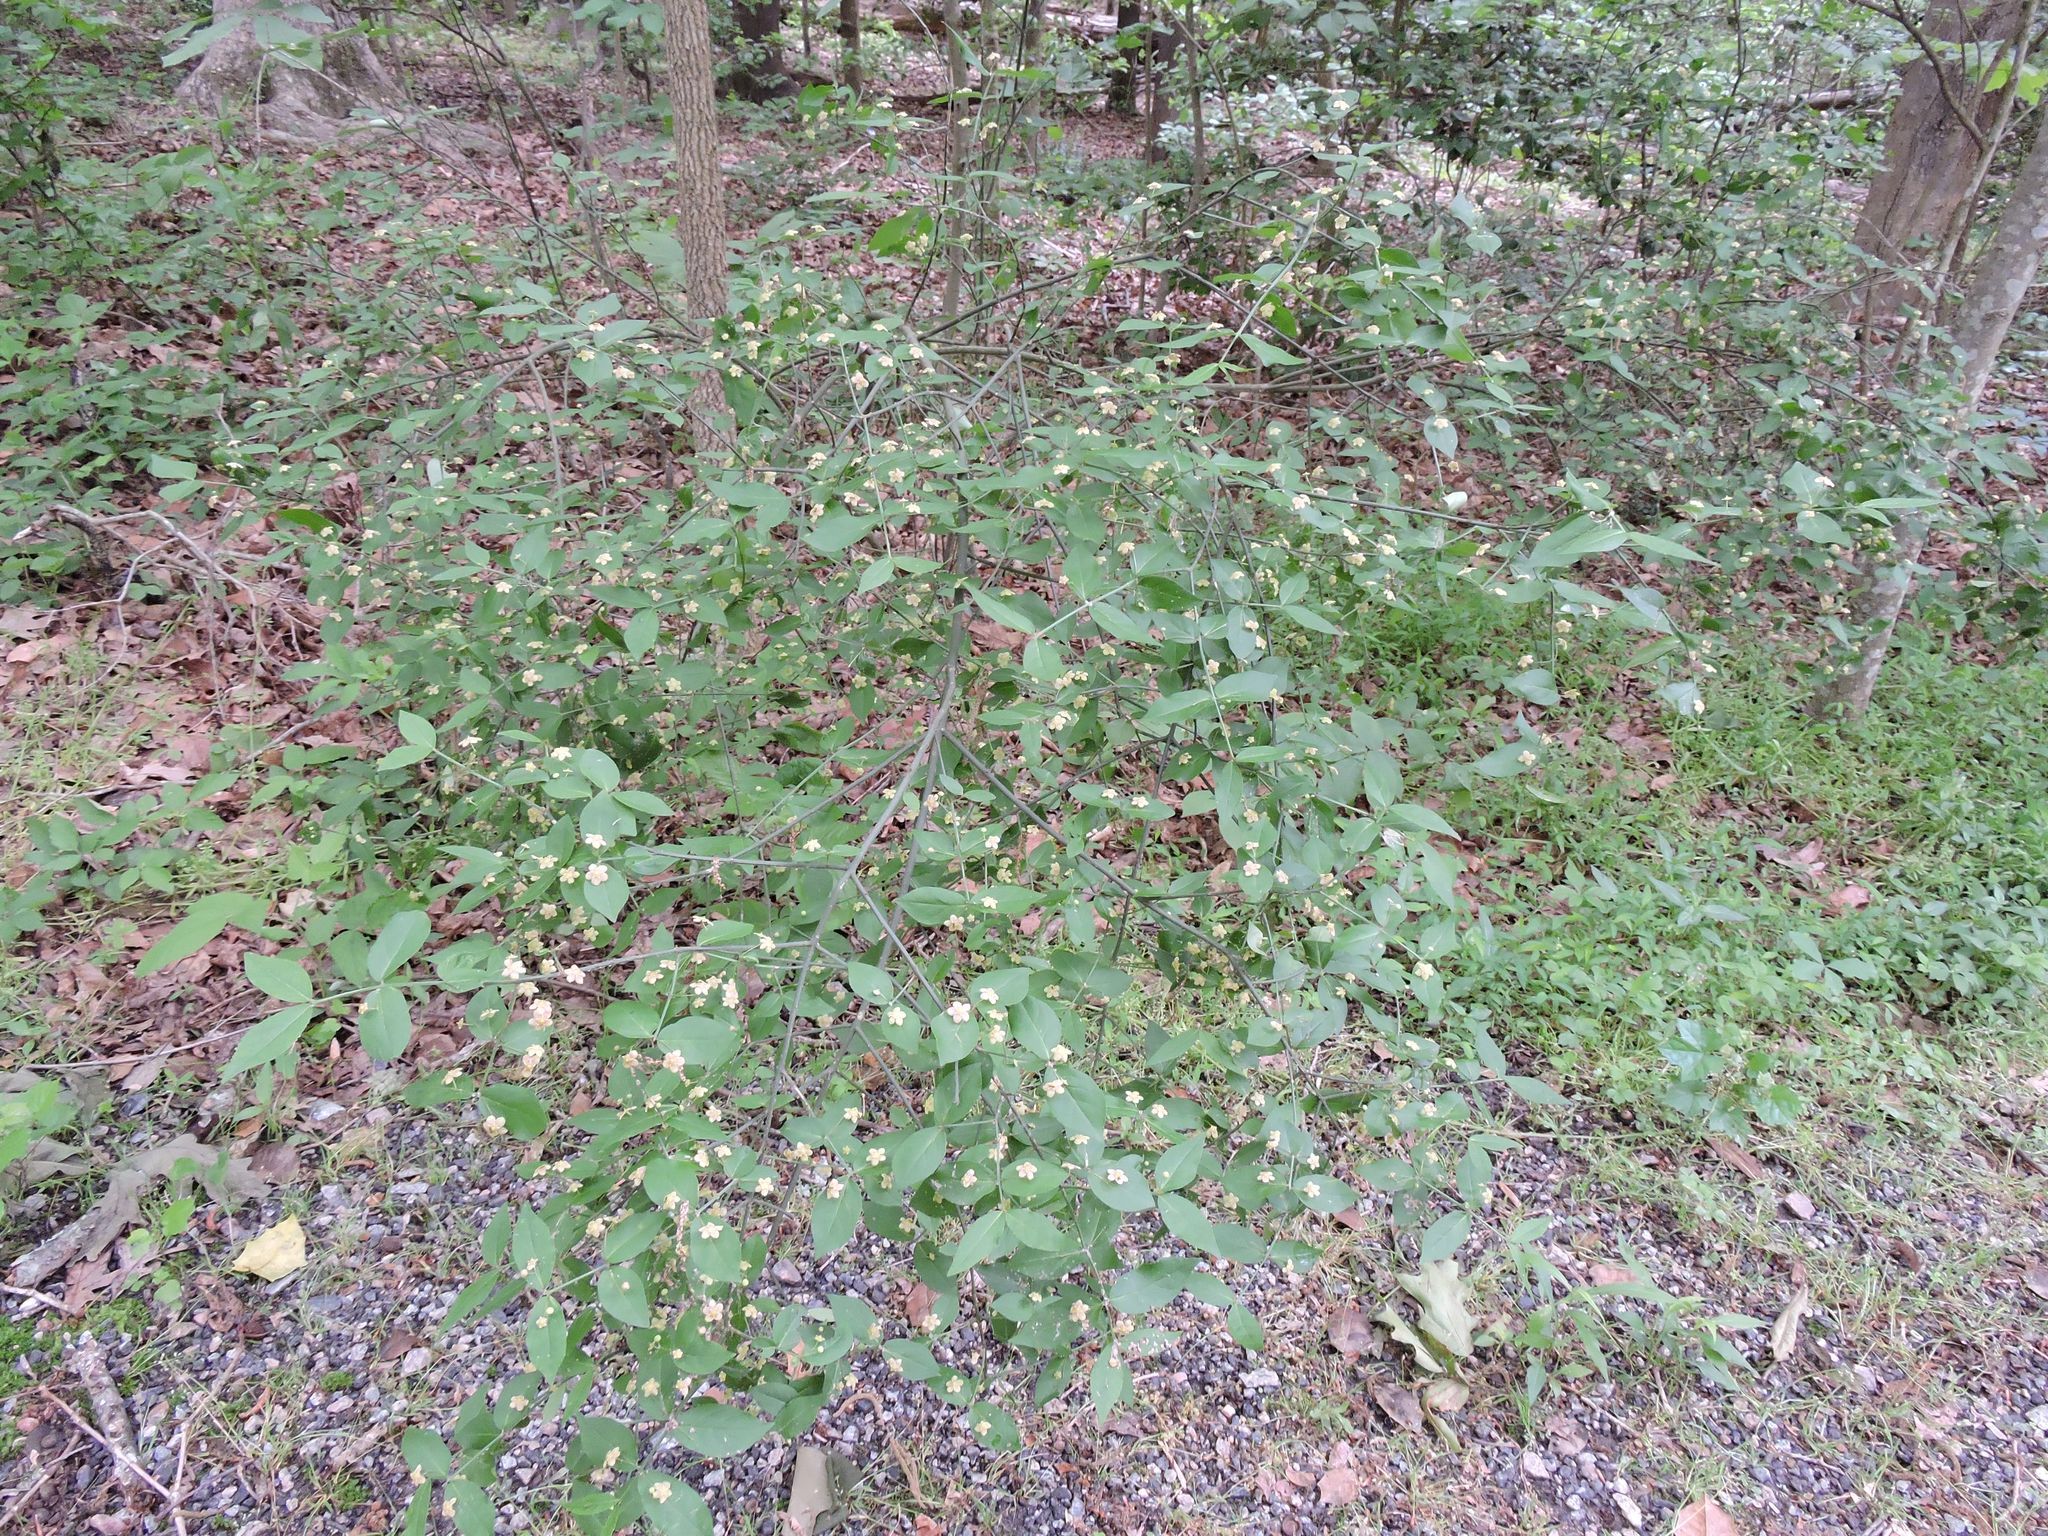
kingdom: Plantae
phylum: Tracheophyta
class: Magnoliopsida
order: Celastrales
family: Celastraceae
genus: Euonymus
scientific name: Euonymus americanus
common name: Bursting-heart
